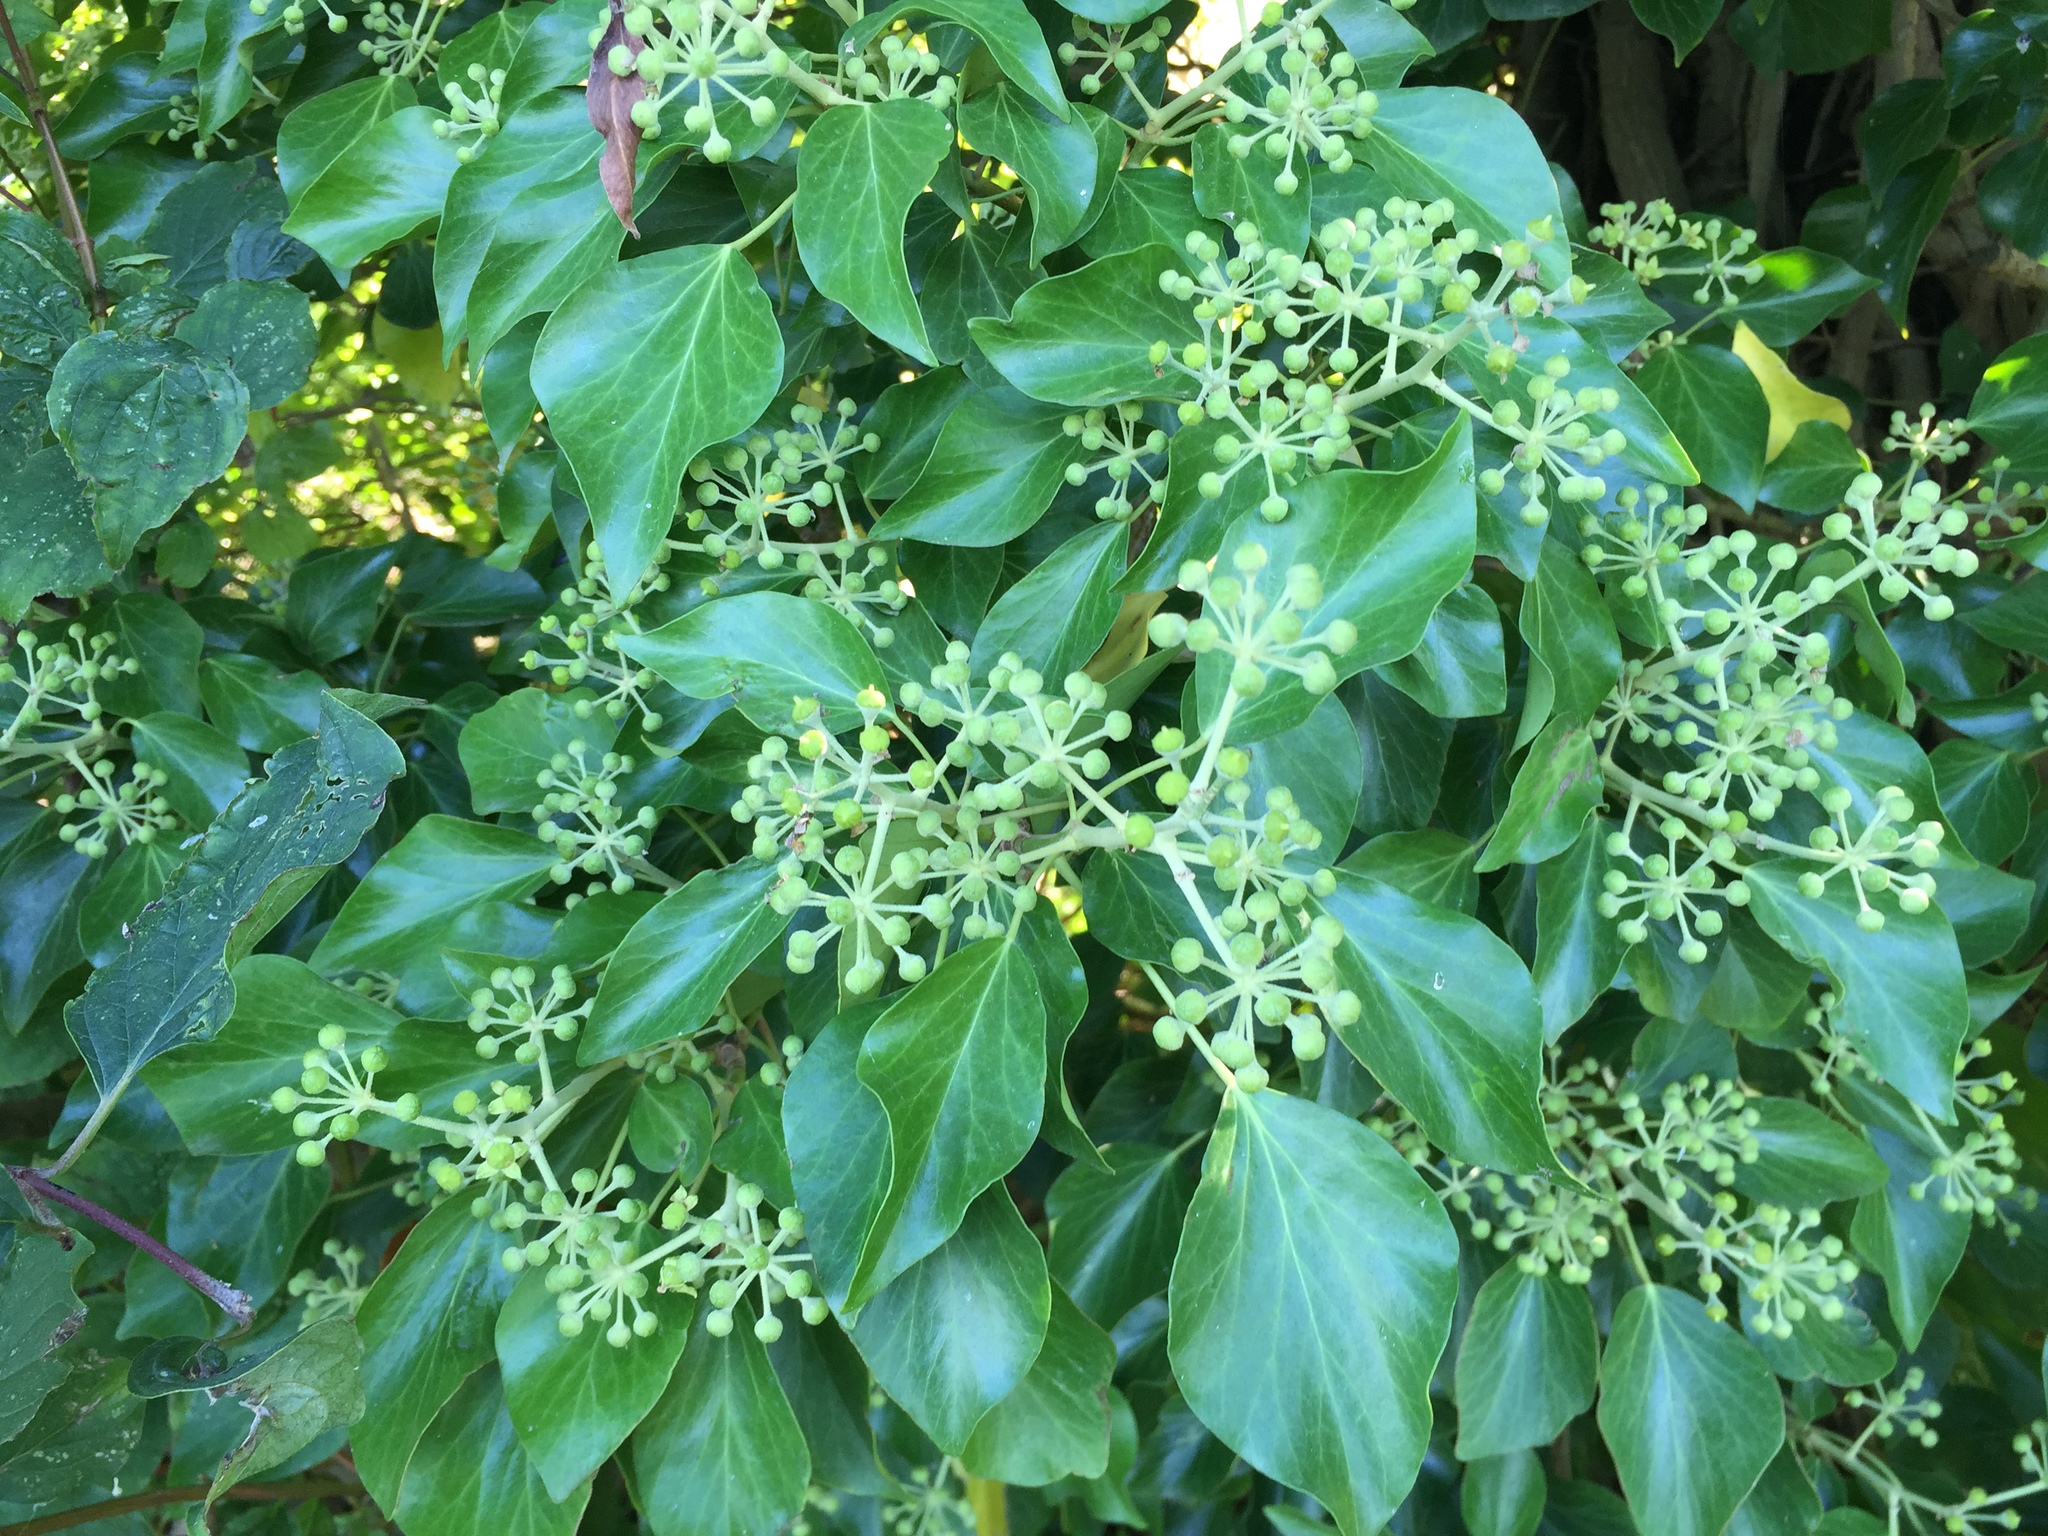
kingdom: Plantae
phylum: Tracheophyta
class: Magnoliopsida
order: Apiales
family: Araliaceae
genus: Hedera
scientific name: Hedera helix
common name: Ivy
